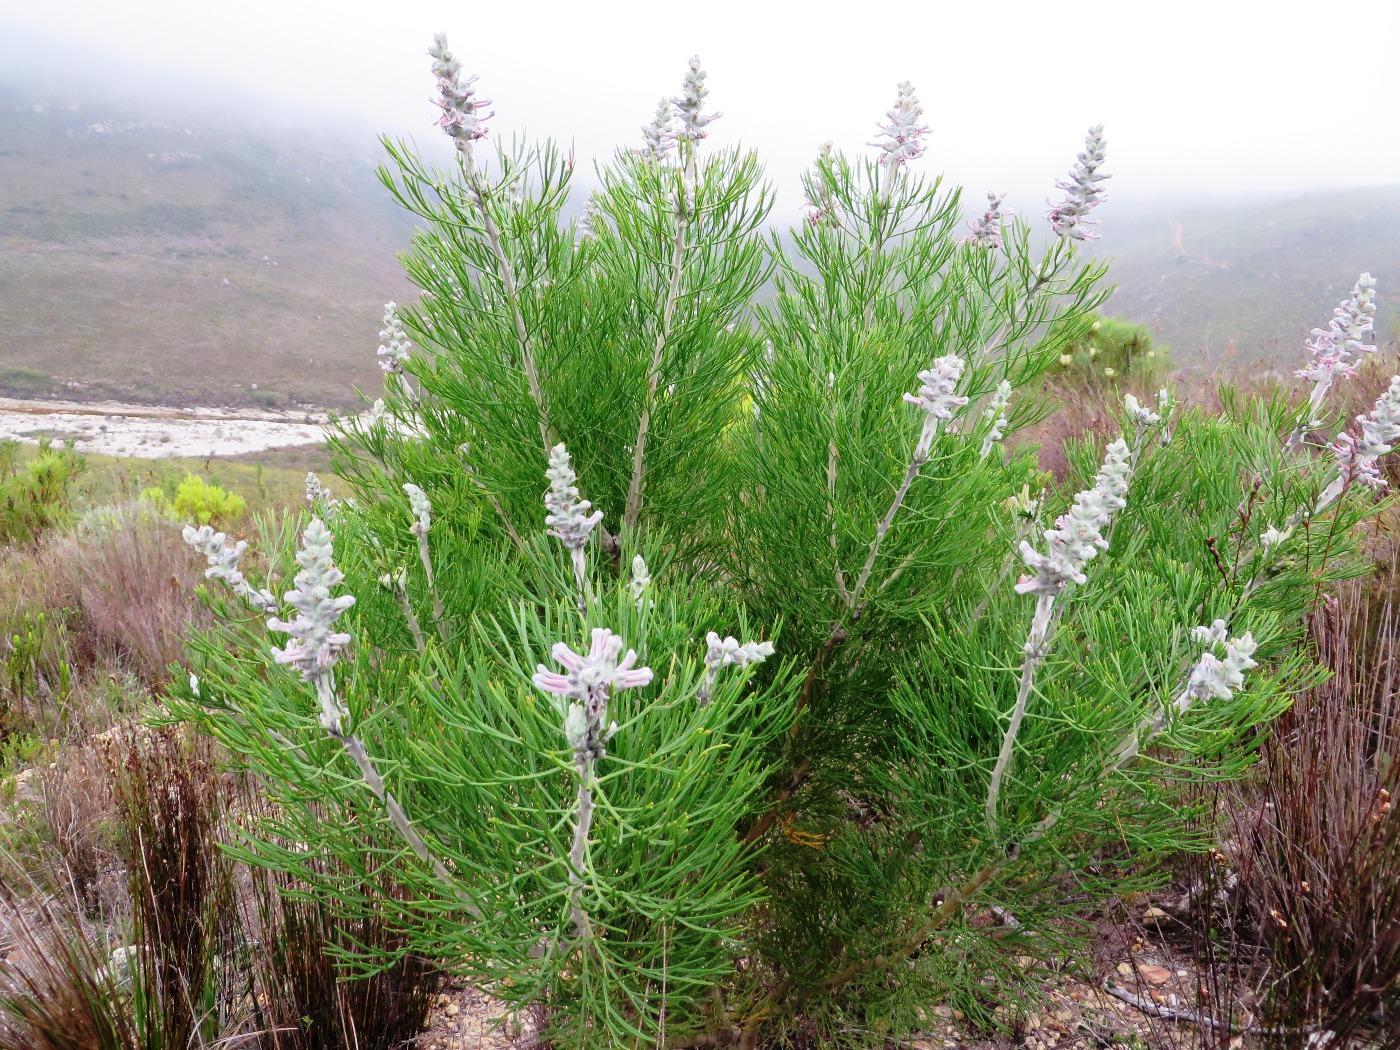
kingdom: Plantae
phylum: Tracheophyta
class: Magnoliopsida
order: Proteales
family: Proteaceae
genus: Paranomus
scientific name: Paranomus dispersus
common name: Long-head sceptre
